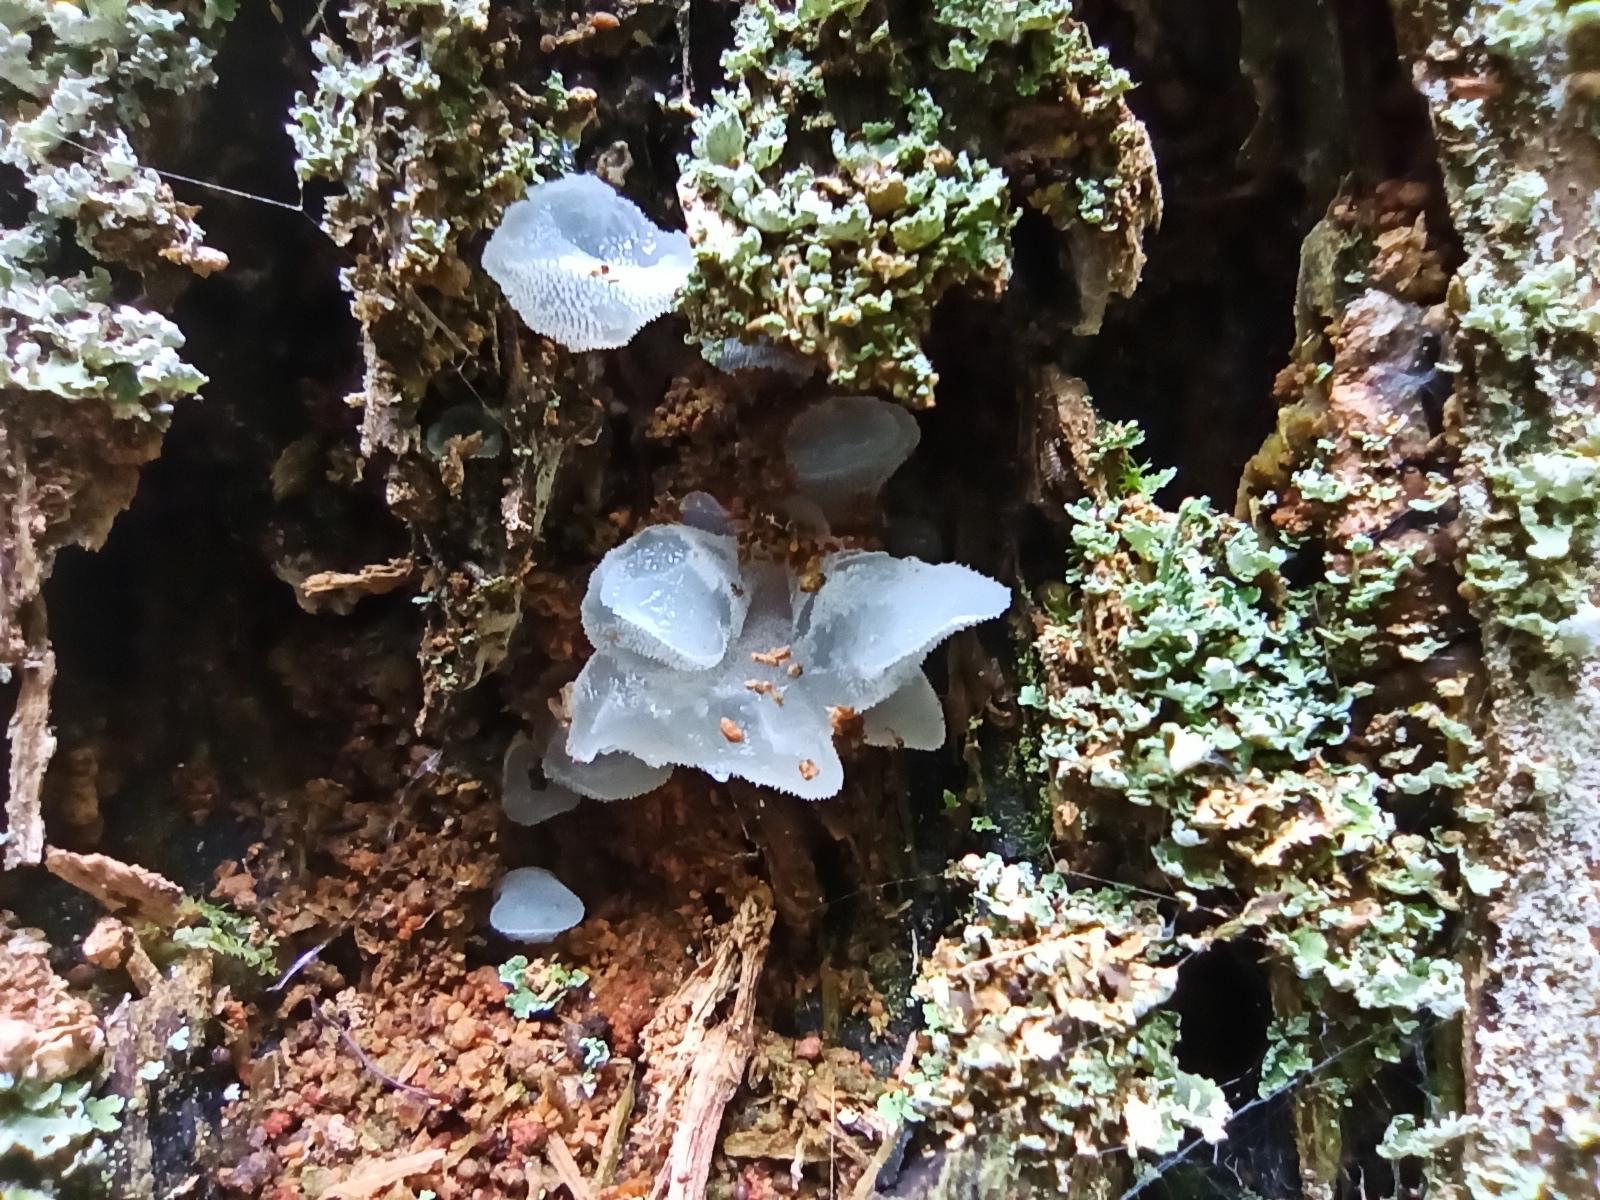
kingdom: Fungi
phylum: Basidiomycota
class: Agaricomycetes
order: Auriculariales
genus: Pseudohydnum
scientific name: Pseudohydnum gelatinosum
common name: Jelly tongue
